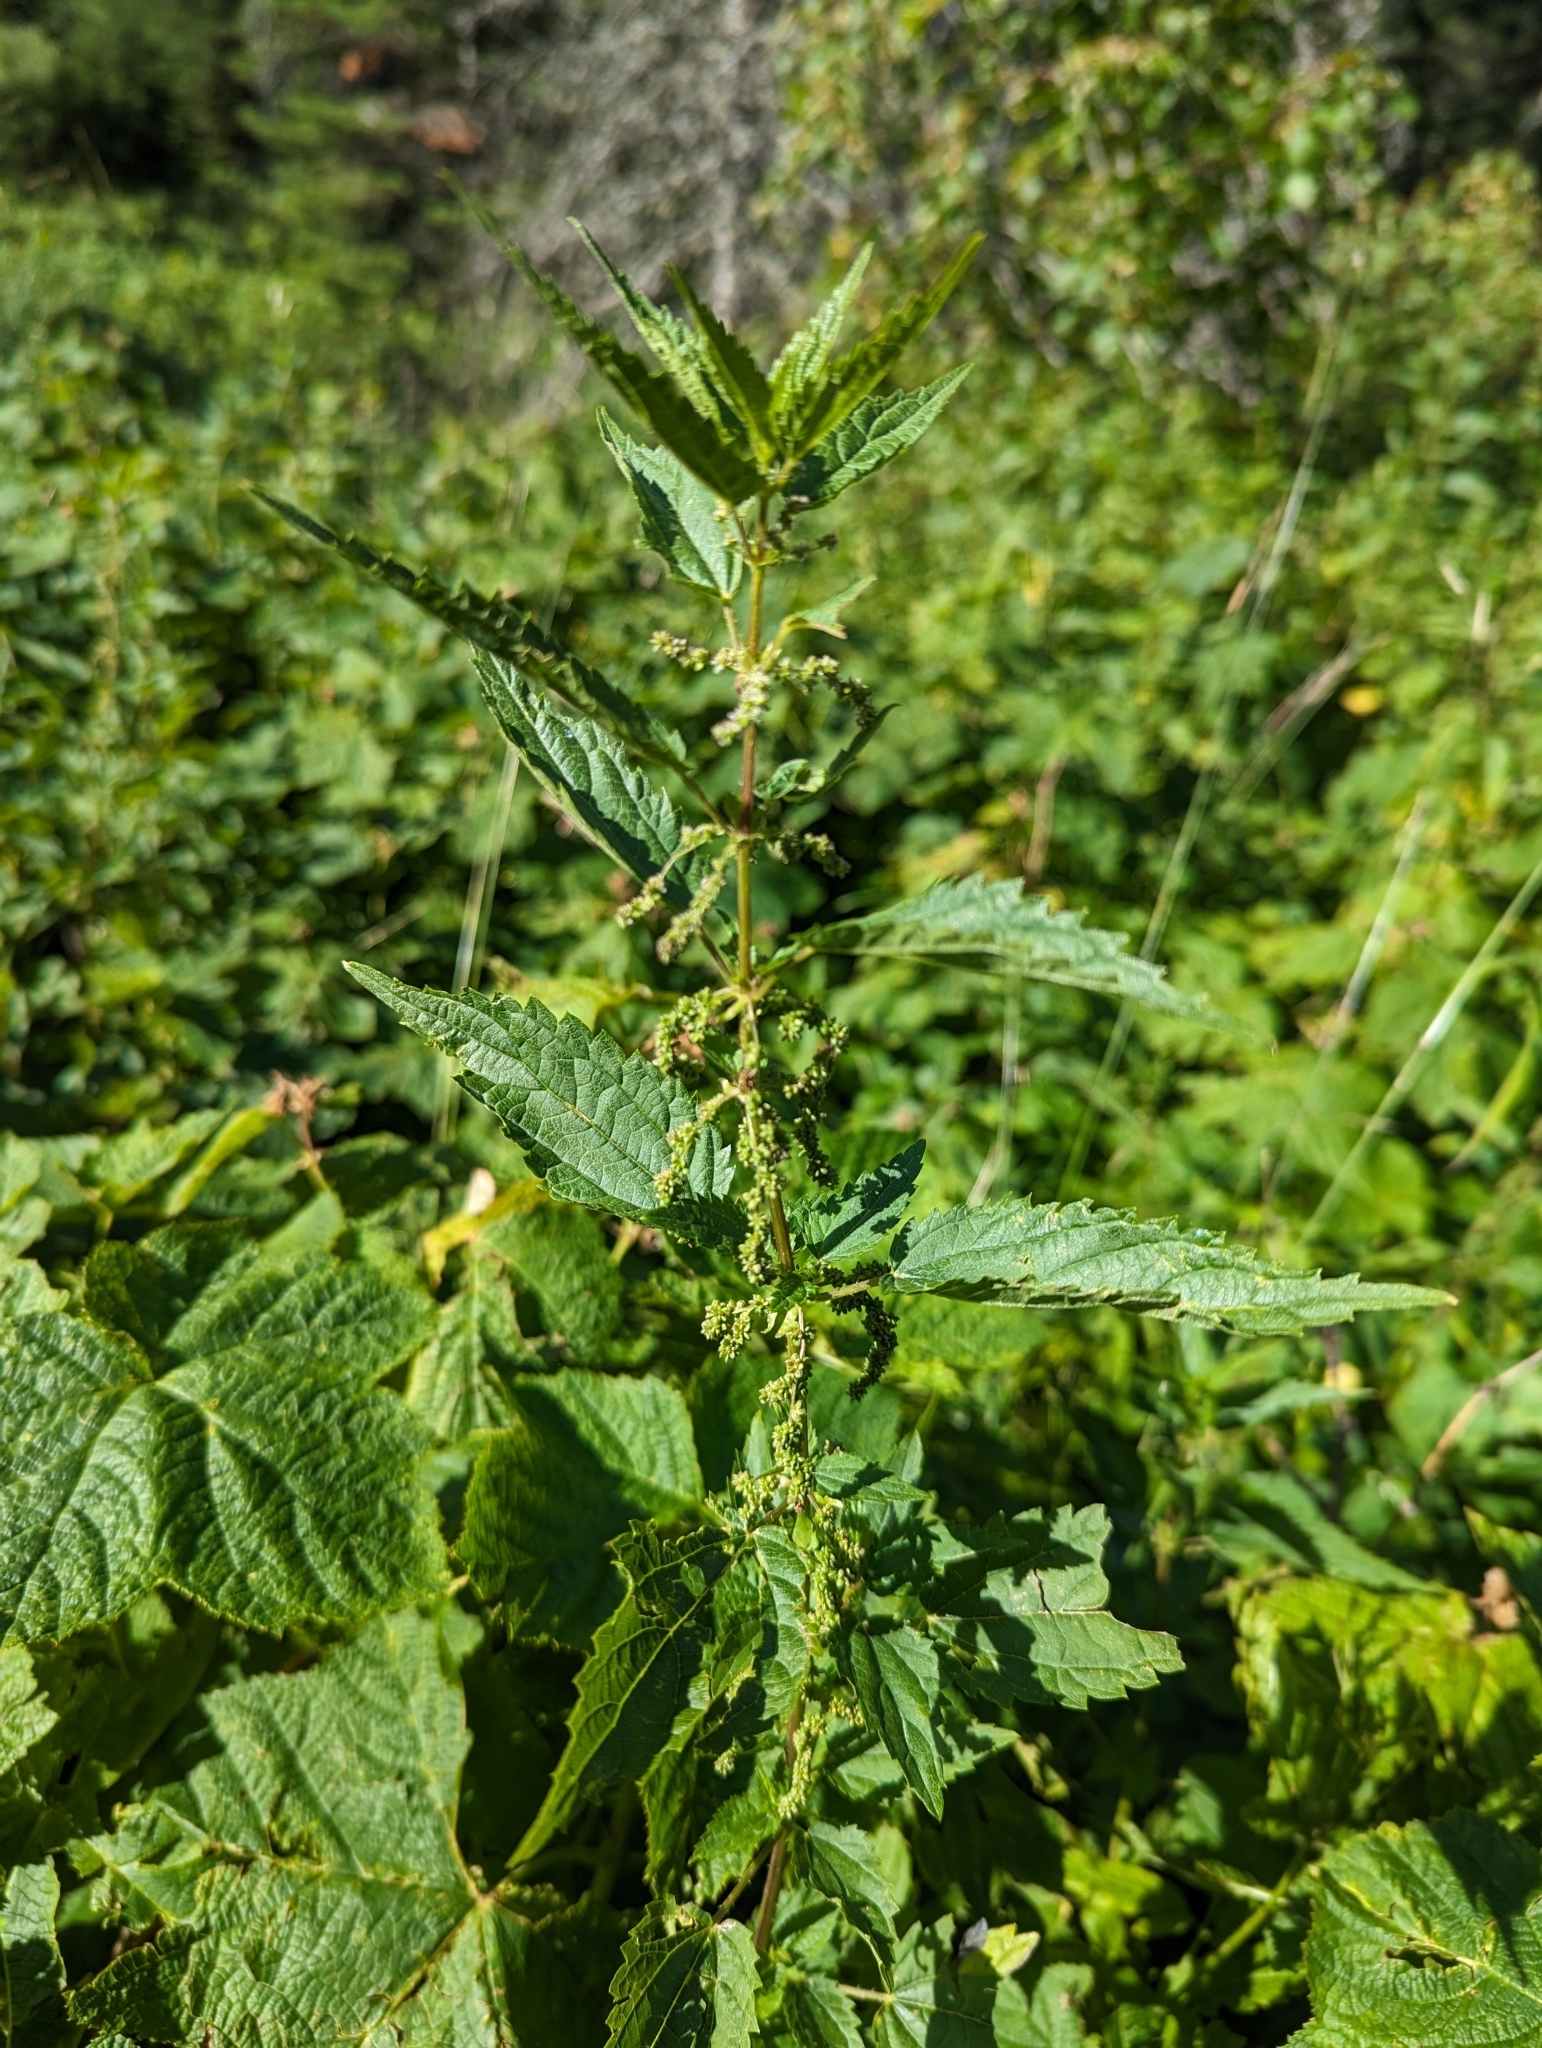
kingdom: Plantae
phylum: Tracheophyta
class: Magnoliopsida
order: Rosales
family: Urticaceae
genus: Urtica
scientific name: Urtica gracilis
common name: Slender stinging nettle
